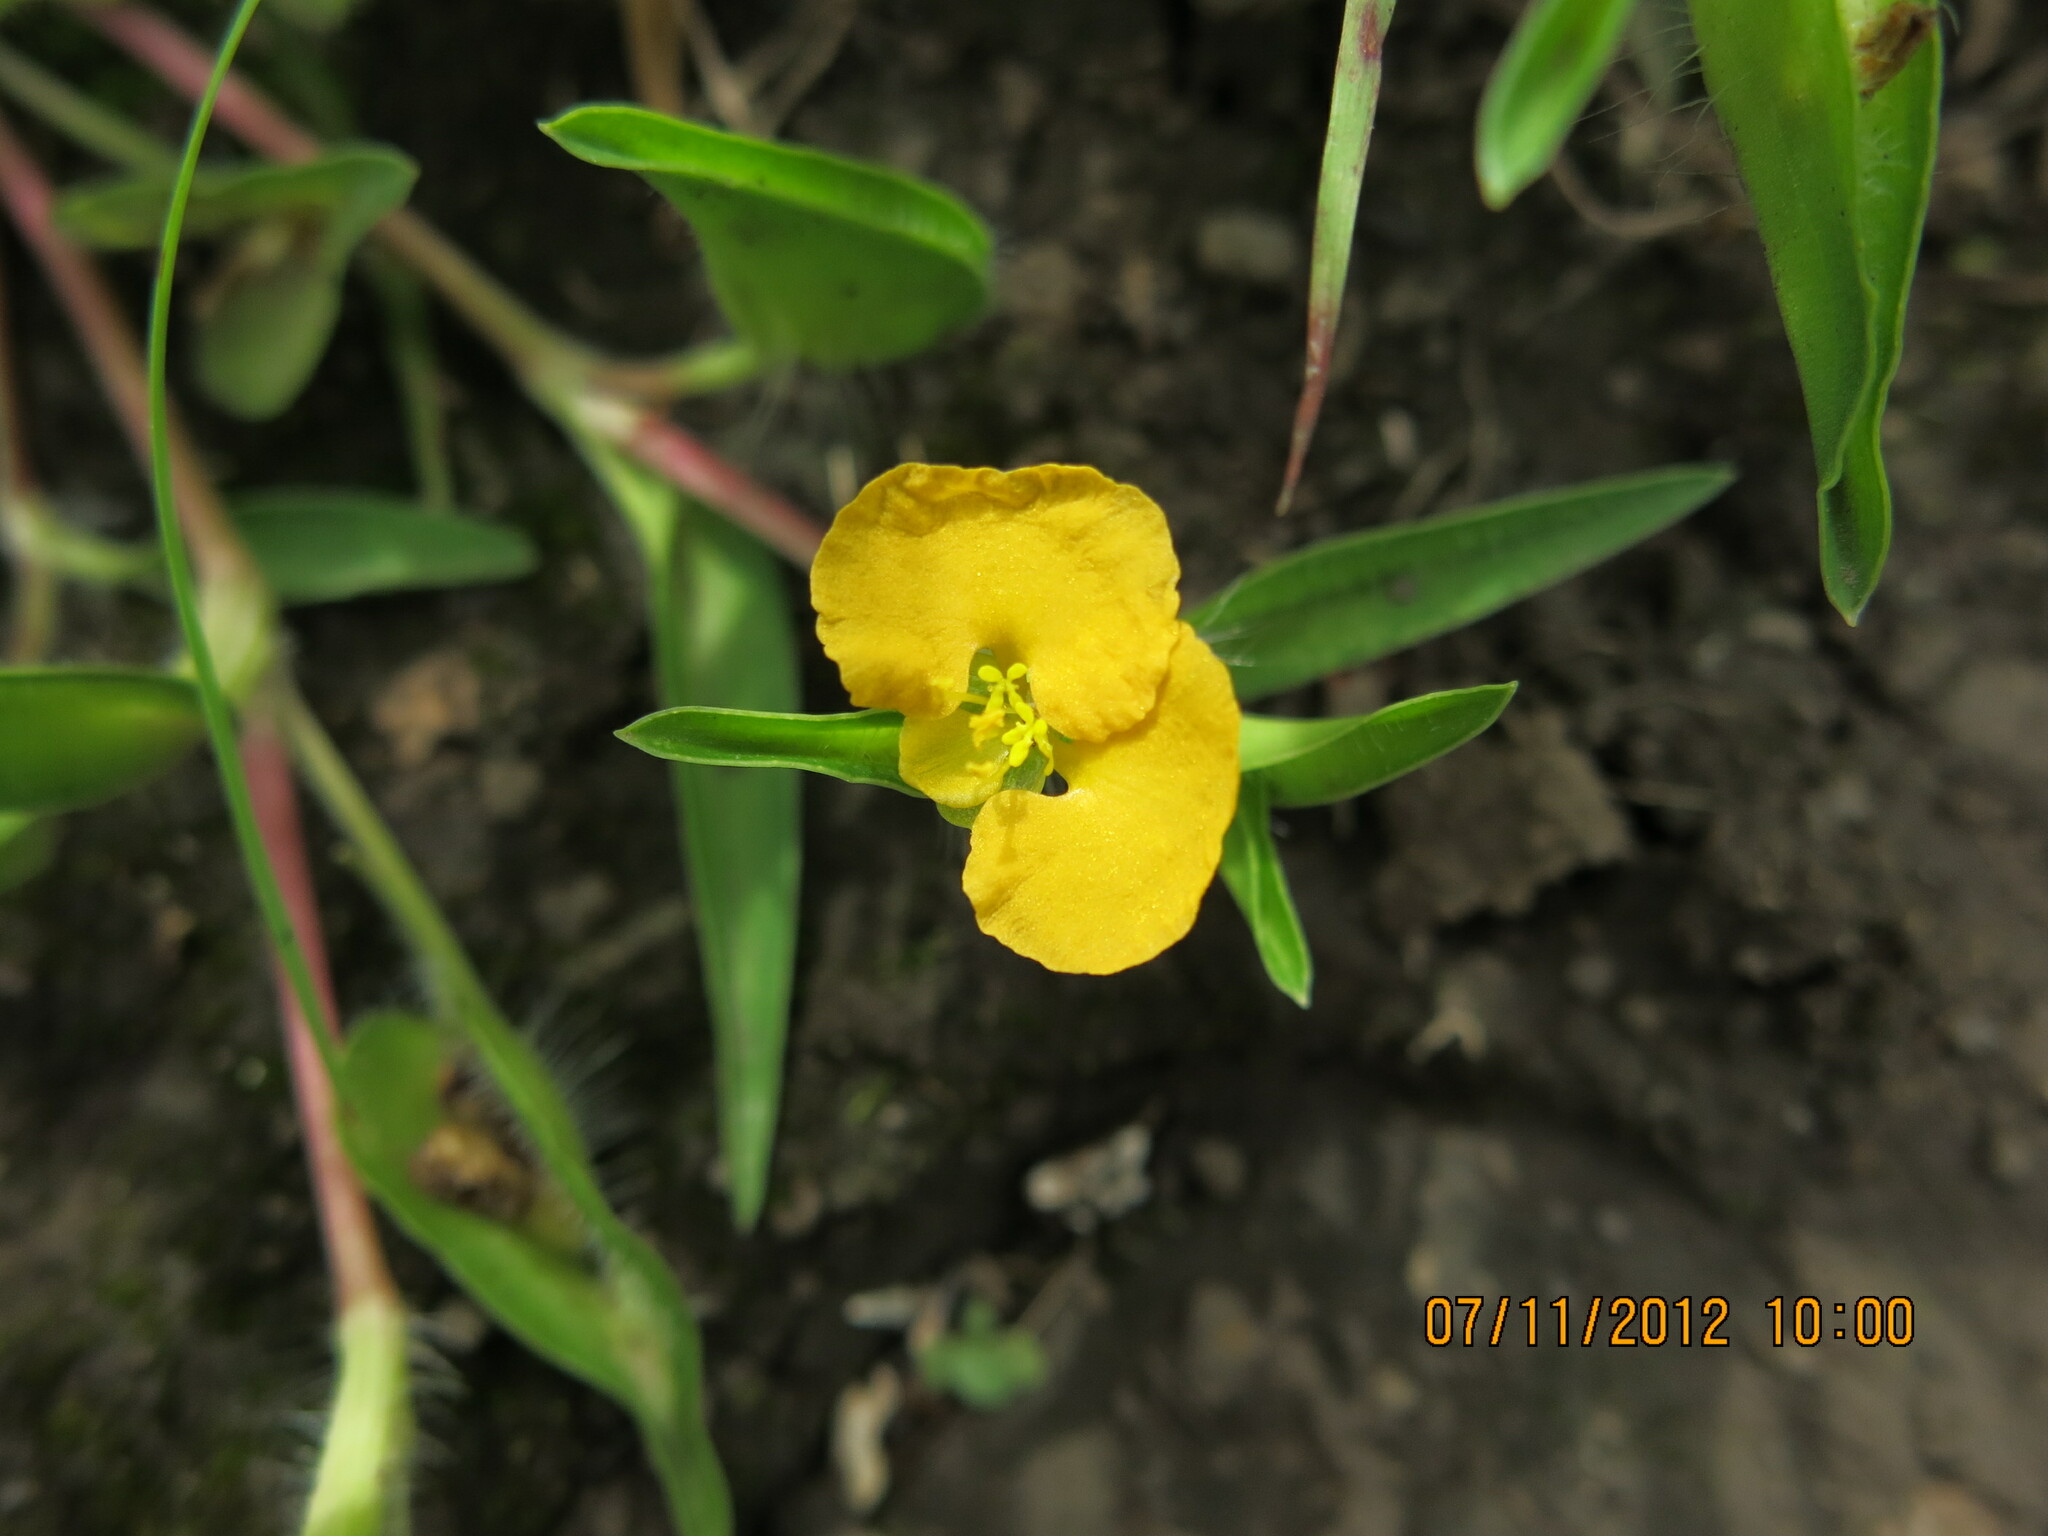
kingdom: Plantae
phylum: Tracheophyta
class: Liliopsida
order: Commelinales
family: Commelinaceae
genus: Commelina
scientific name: Commelina africana
